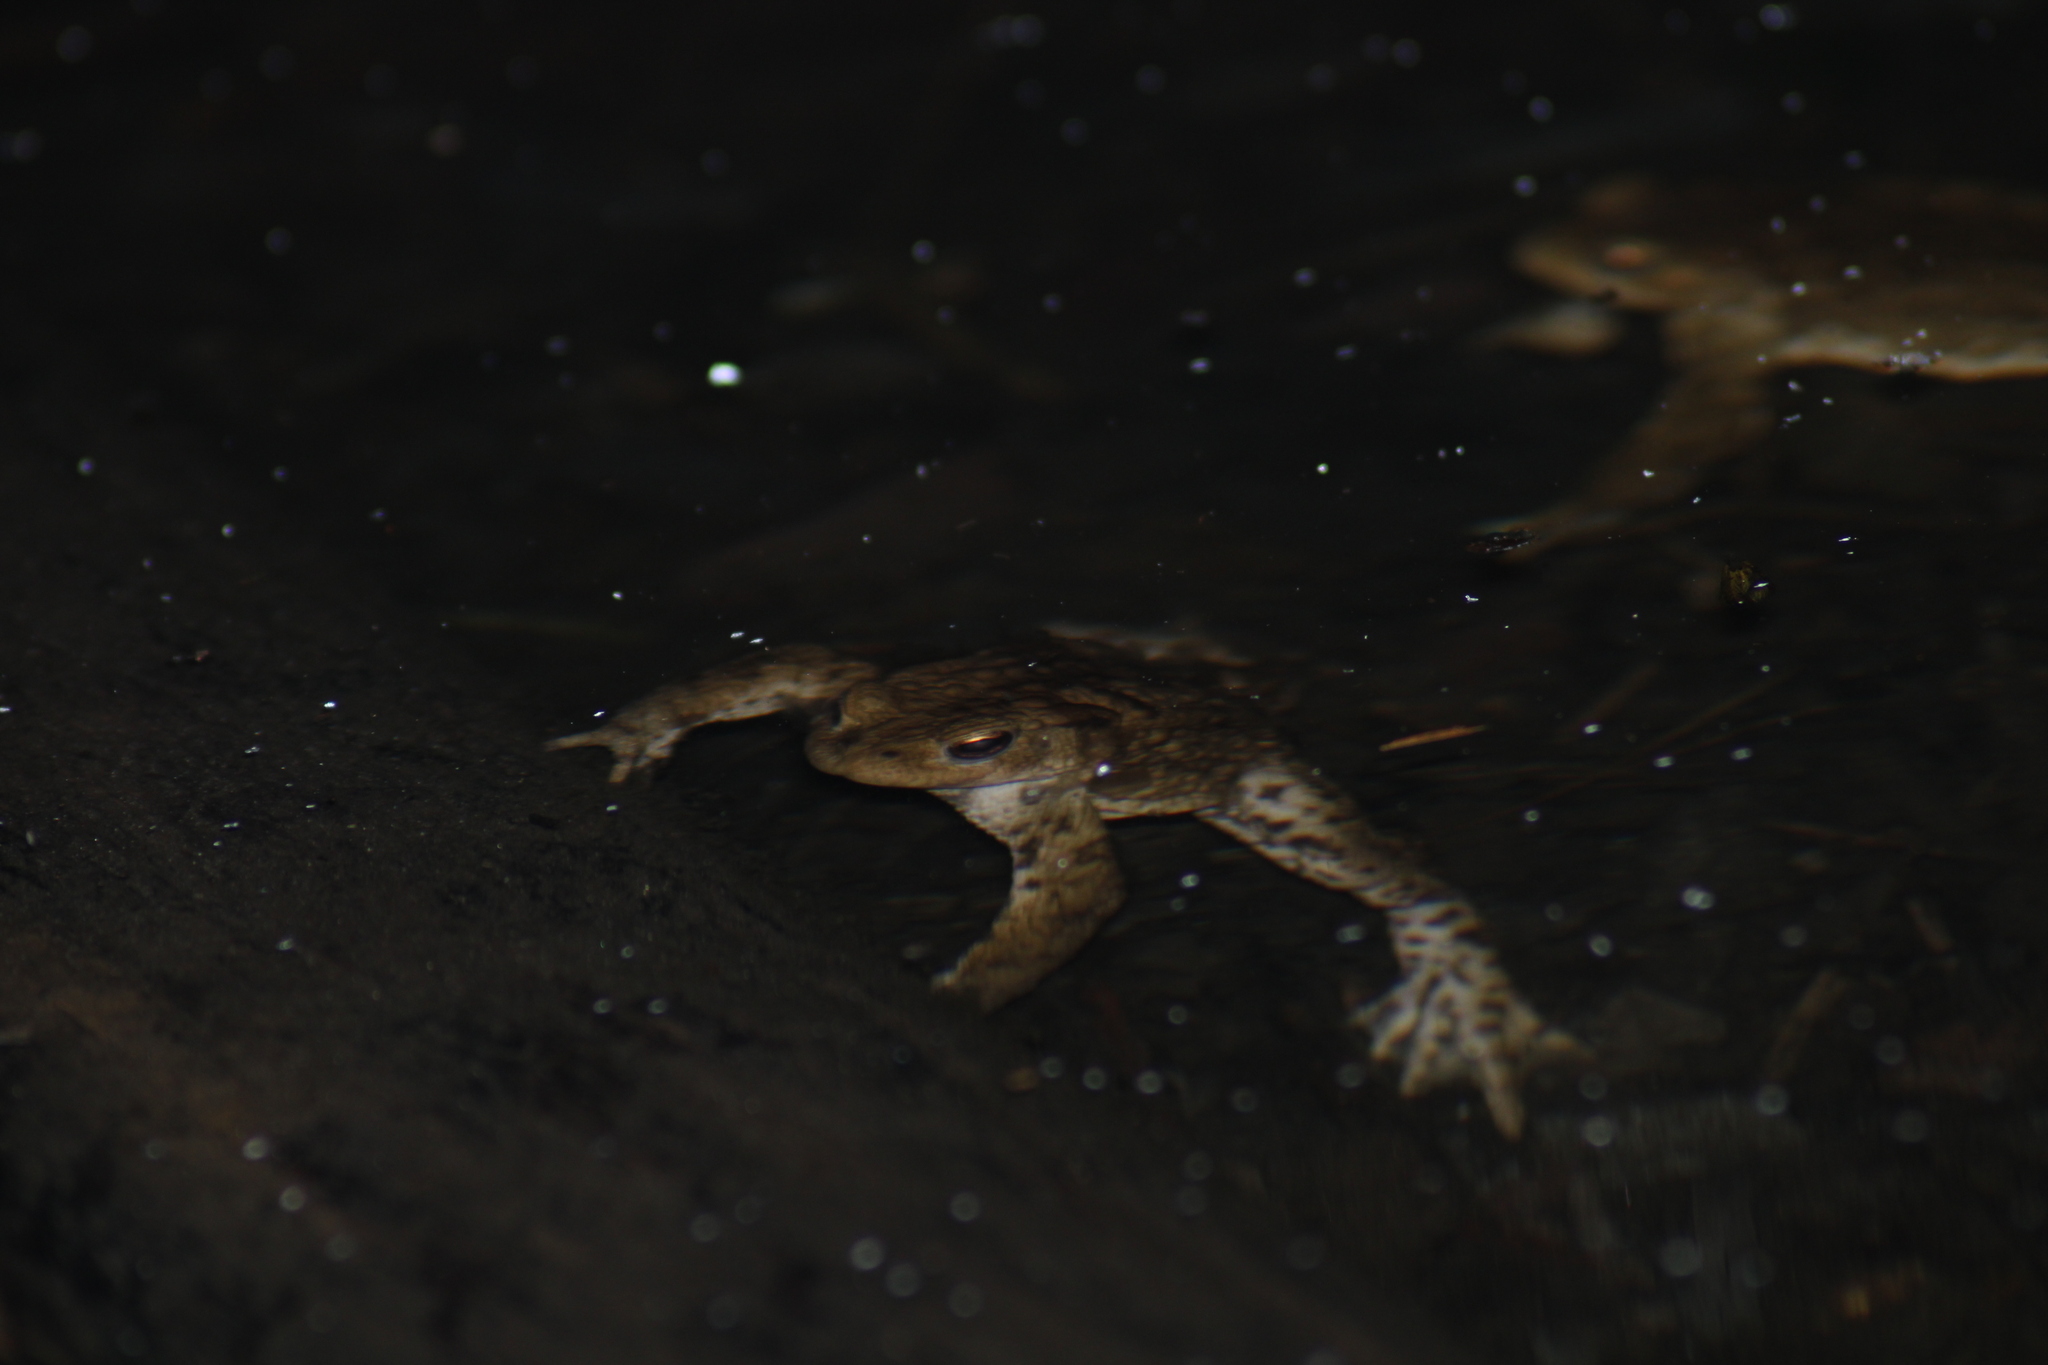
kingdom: Animalia
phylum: Chordata
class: Amphibia
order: Anura
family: Bufonidae
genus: Bufo
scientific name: Bufo bufo
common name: Common toad
